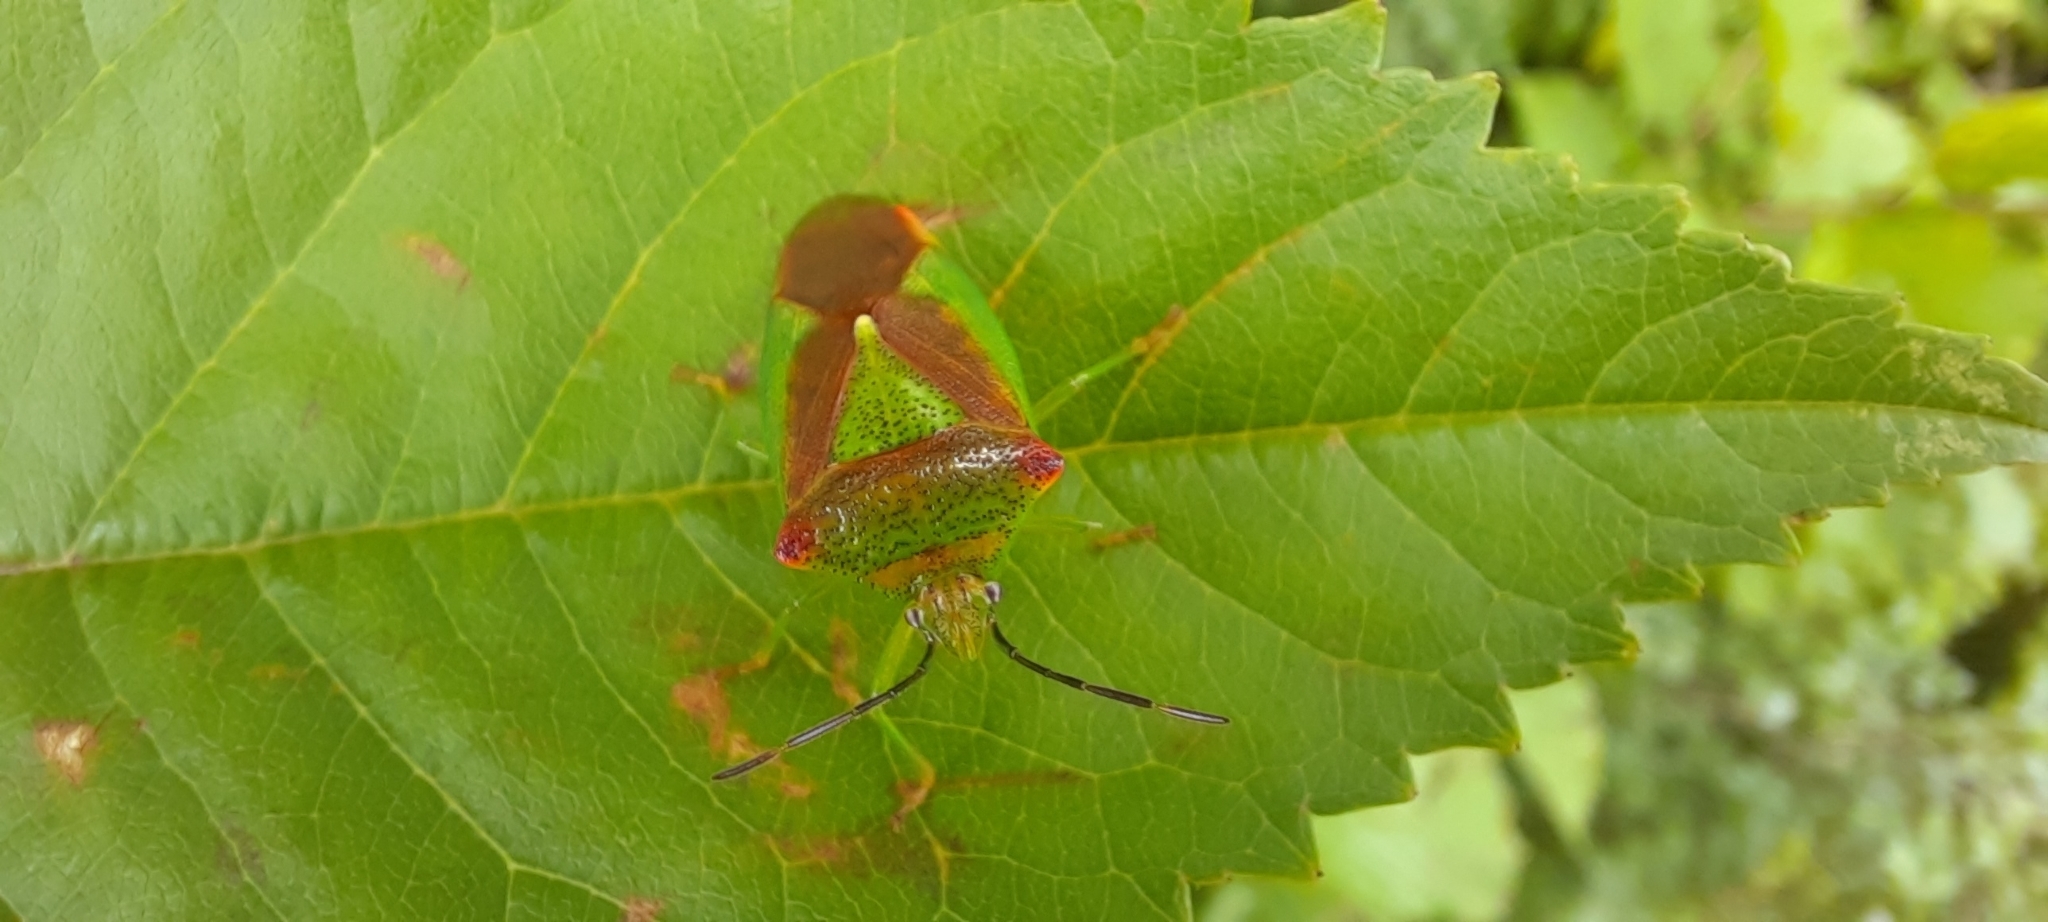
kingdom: Animalia
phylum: Arthropoda
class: Insecta
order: Hemiptera
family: Acanthosomatidae
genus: Acanthosoma
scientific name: Acanthosoma haemorrhoidale
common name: Hawthorn shieldbug
